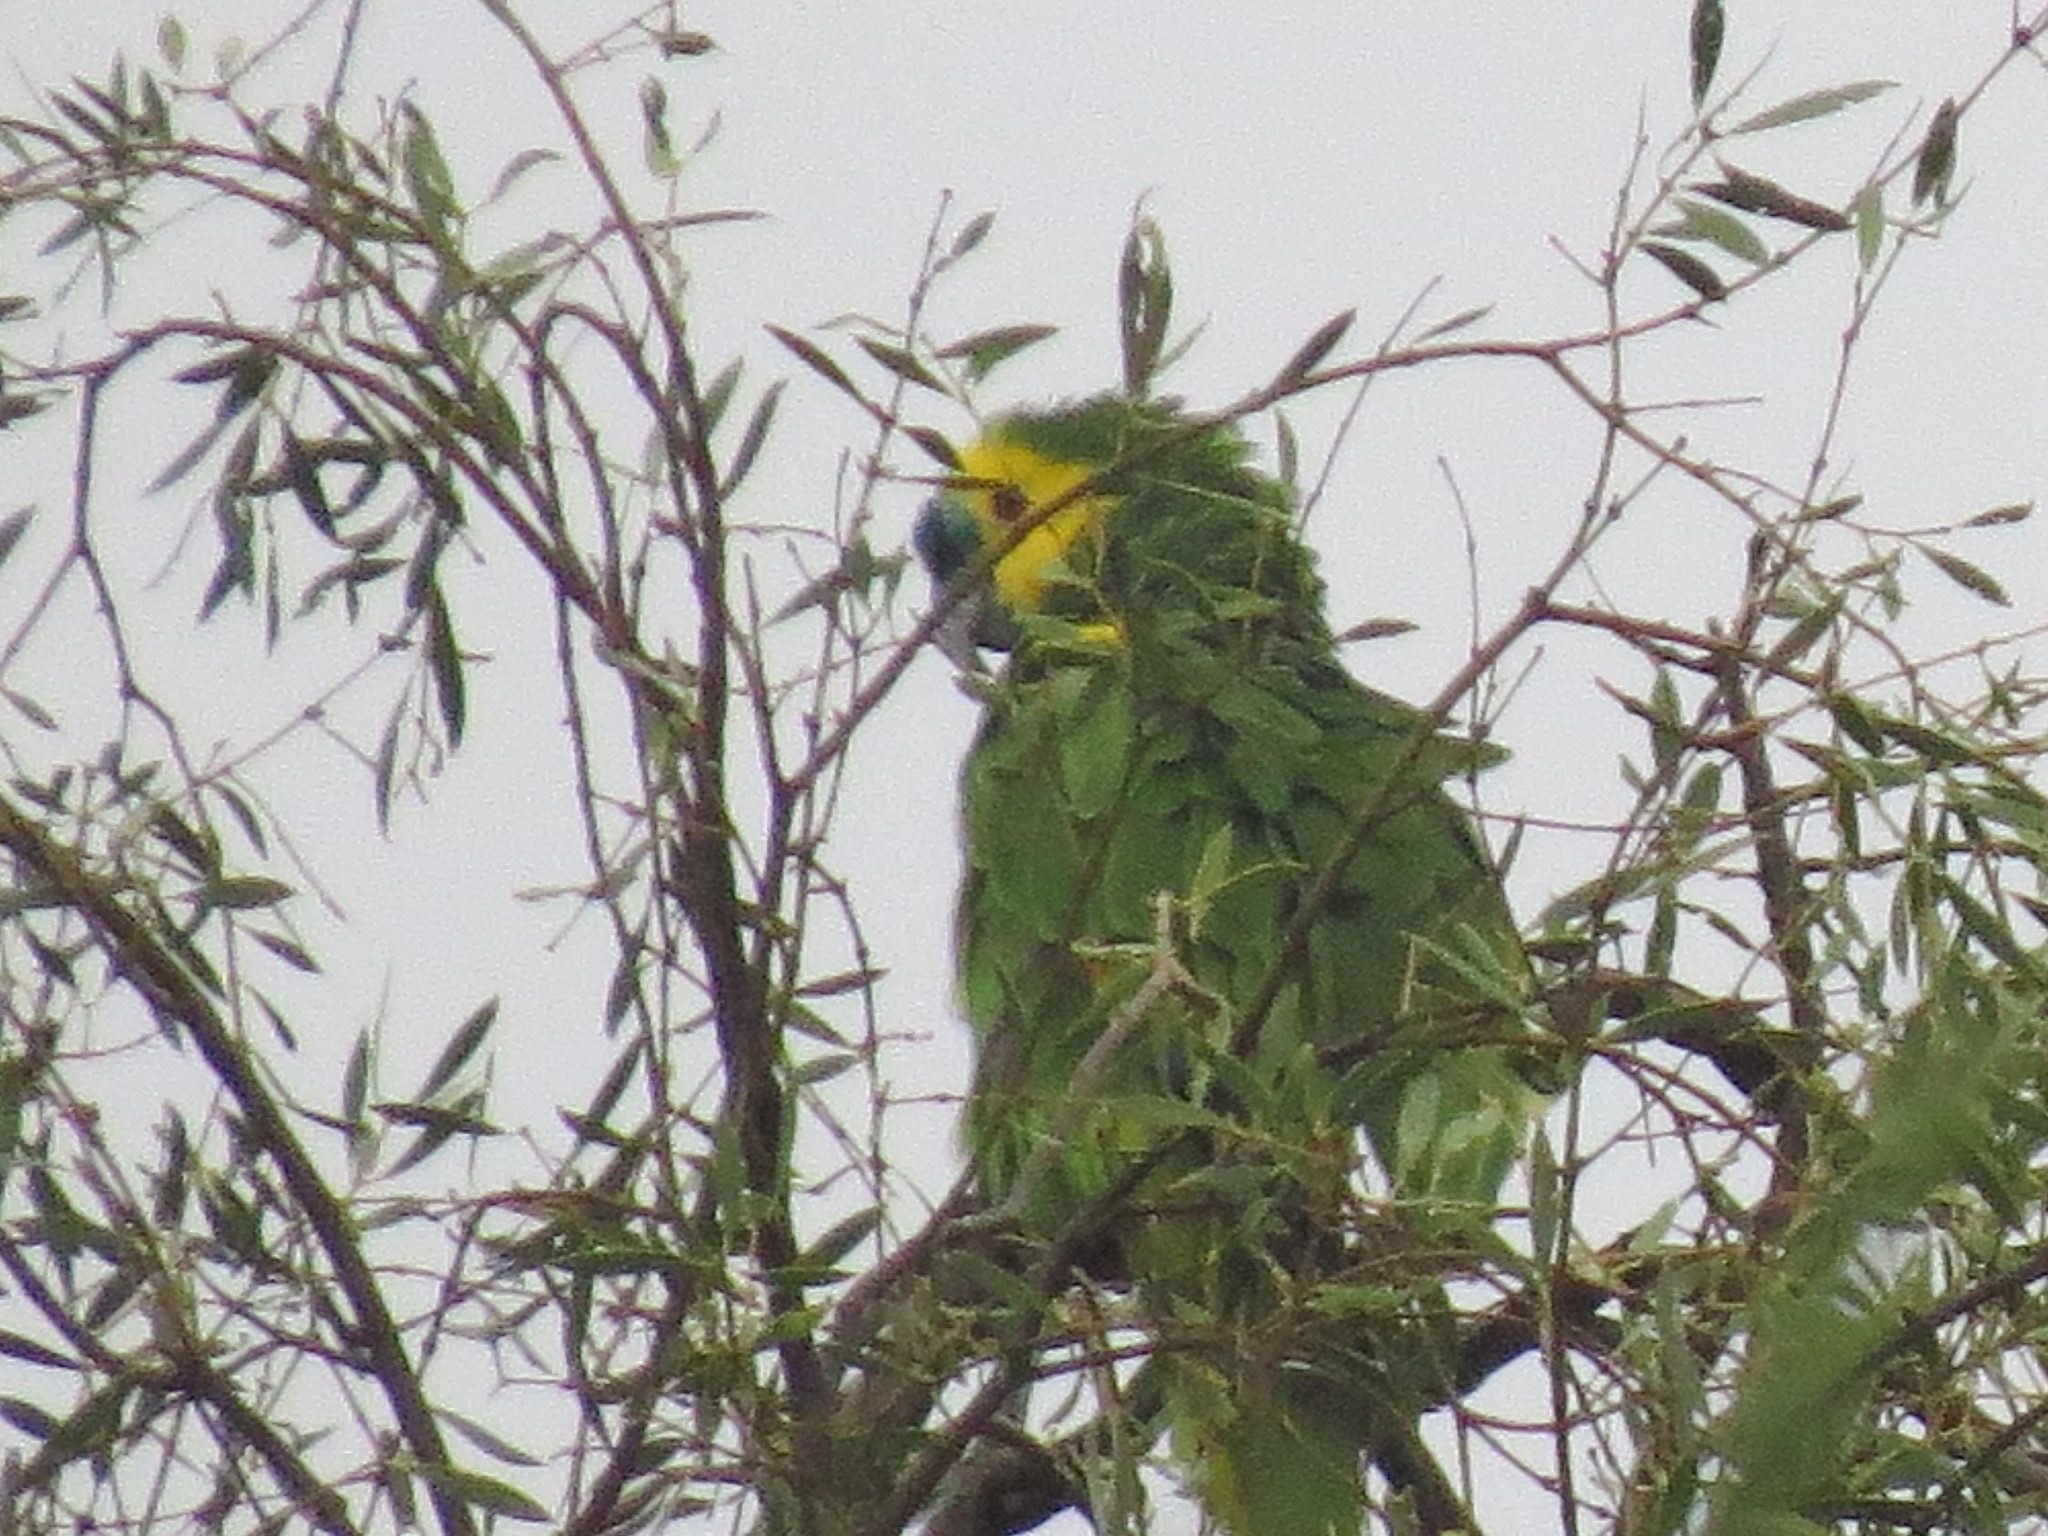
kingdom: Animalia
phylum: Chordata
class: Aves
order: Psittaciformes
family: Psittacidae
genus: Amazona
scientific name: Amazona aestiva
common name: Turquoise-fronted amazon
